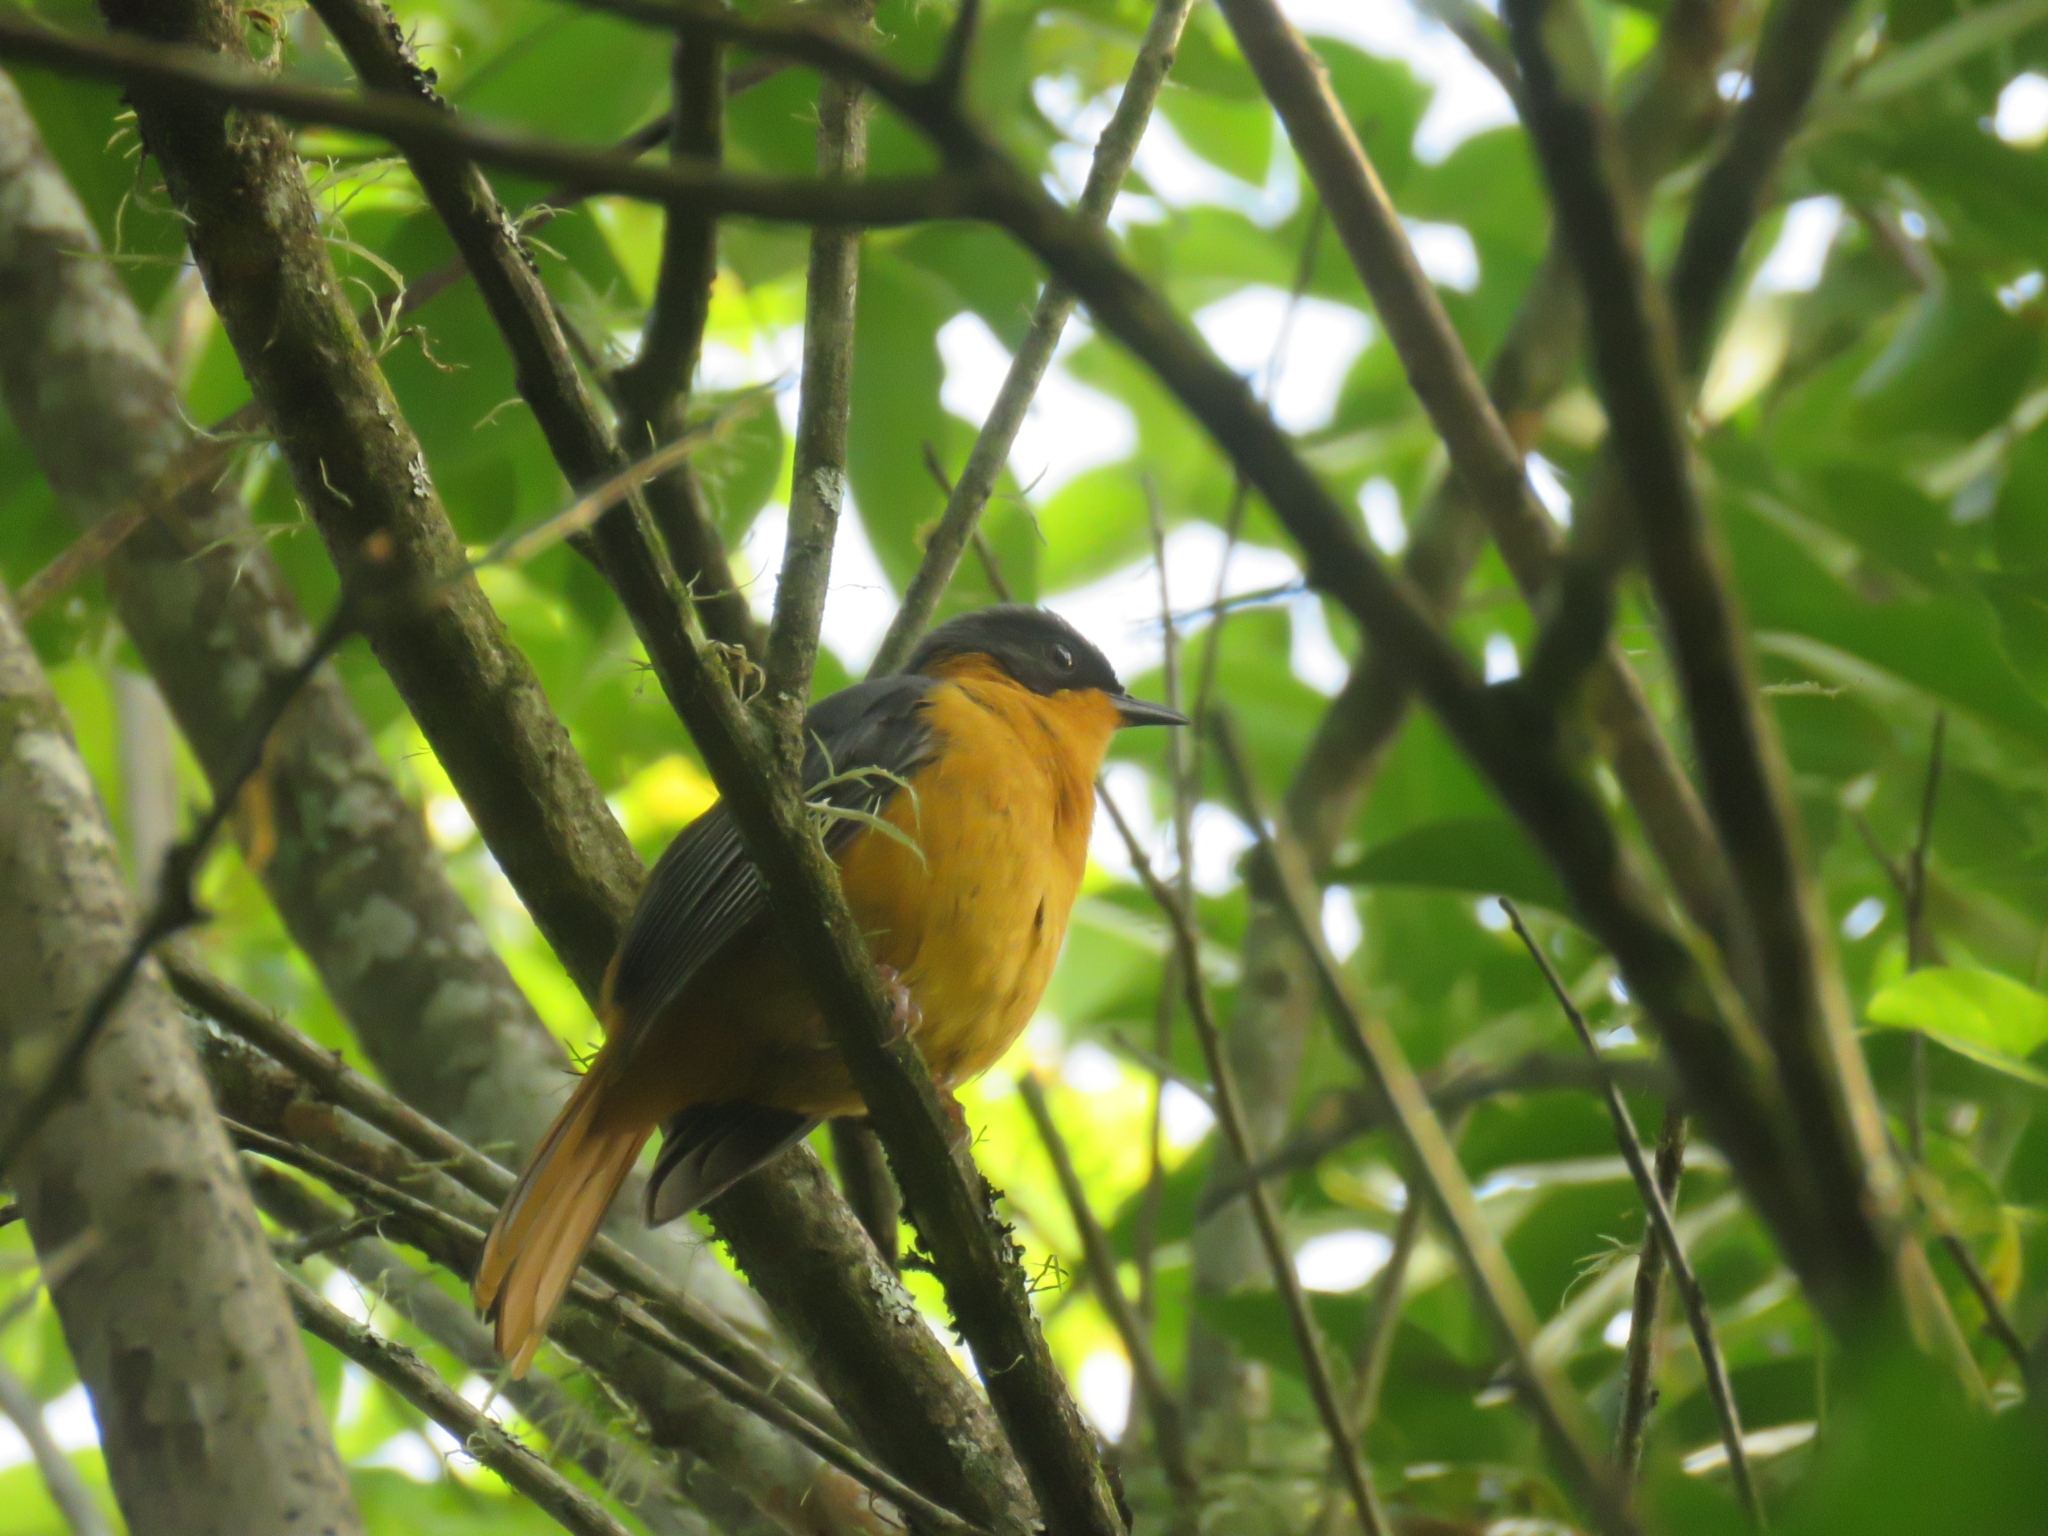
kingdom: Animalia
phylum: Chordata
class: Aves
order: Passeriformes
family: Muscicapidae
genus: Cossypha
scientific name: Cossypha dichroa
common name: Chorister robin-chat
